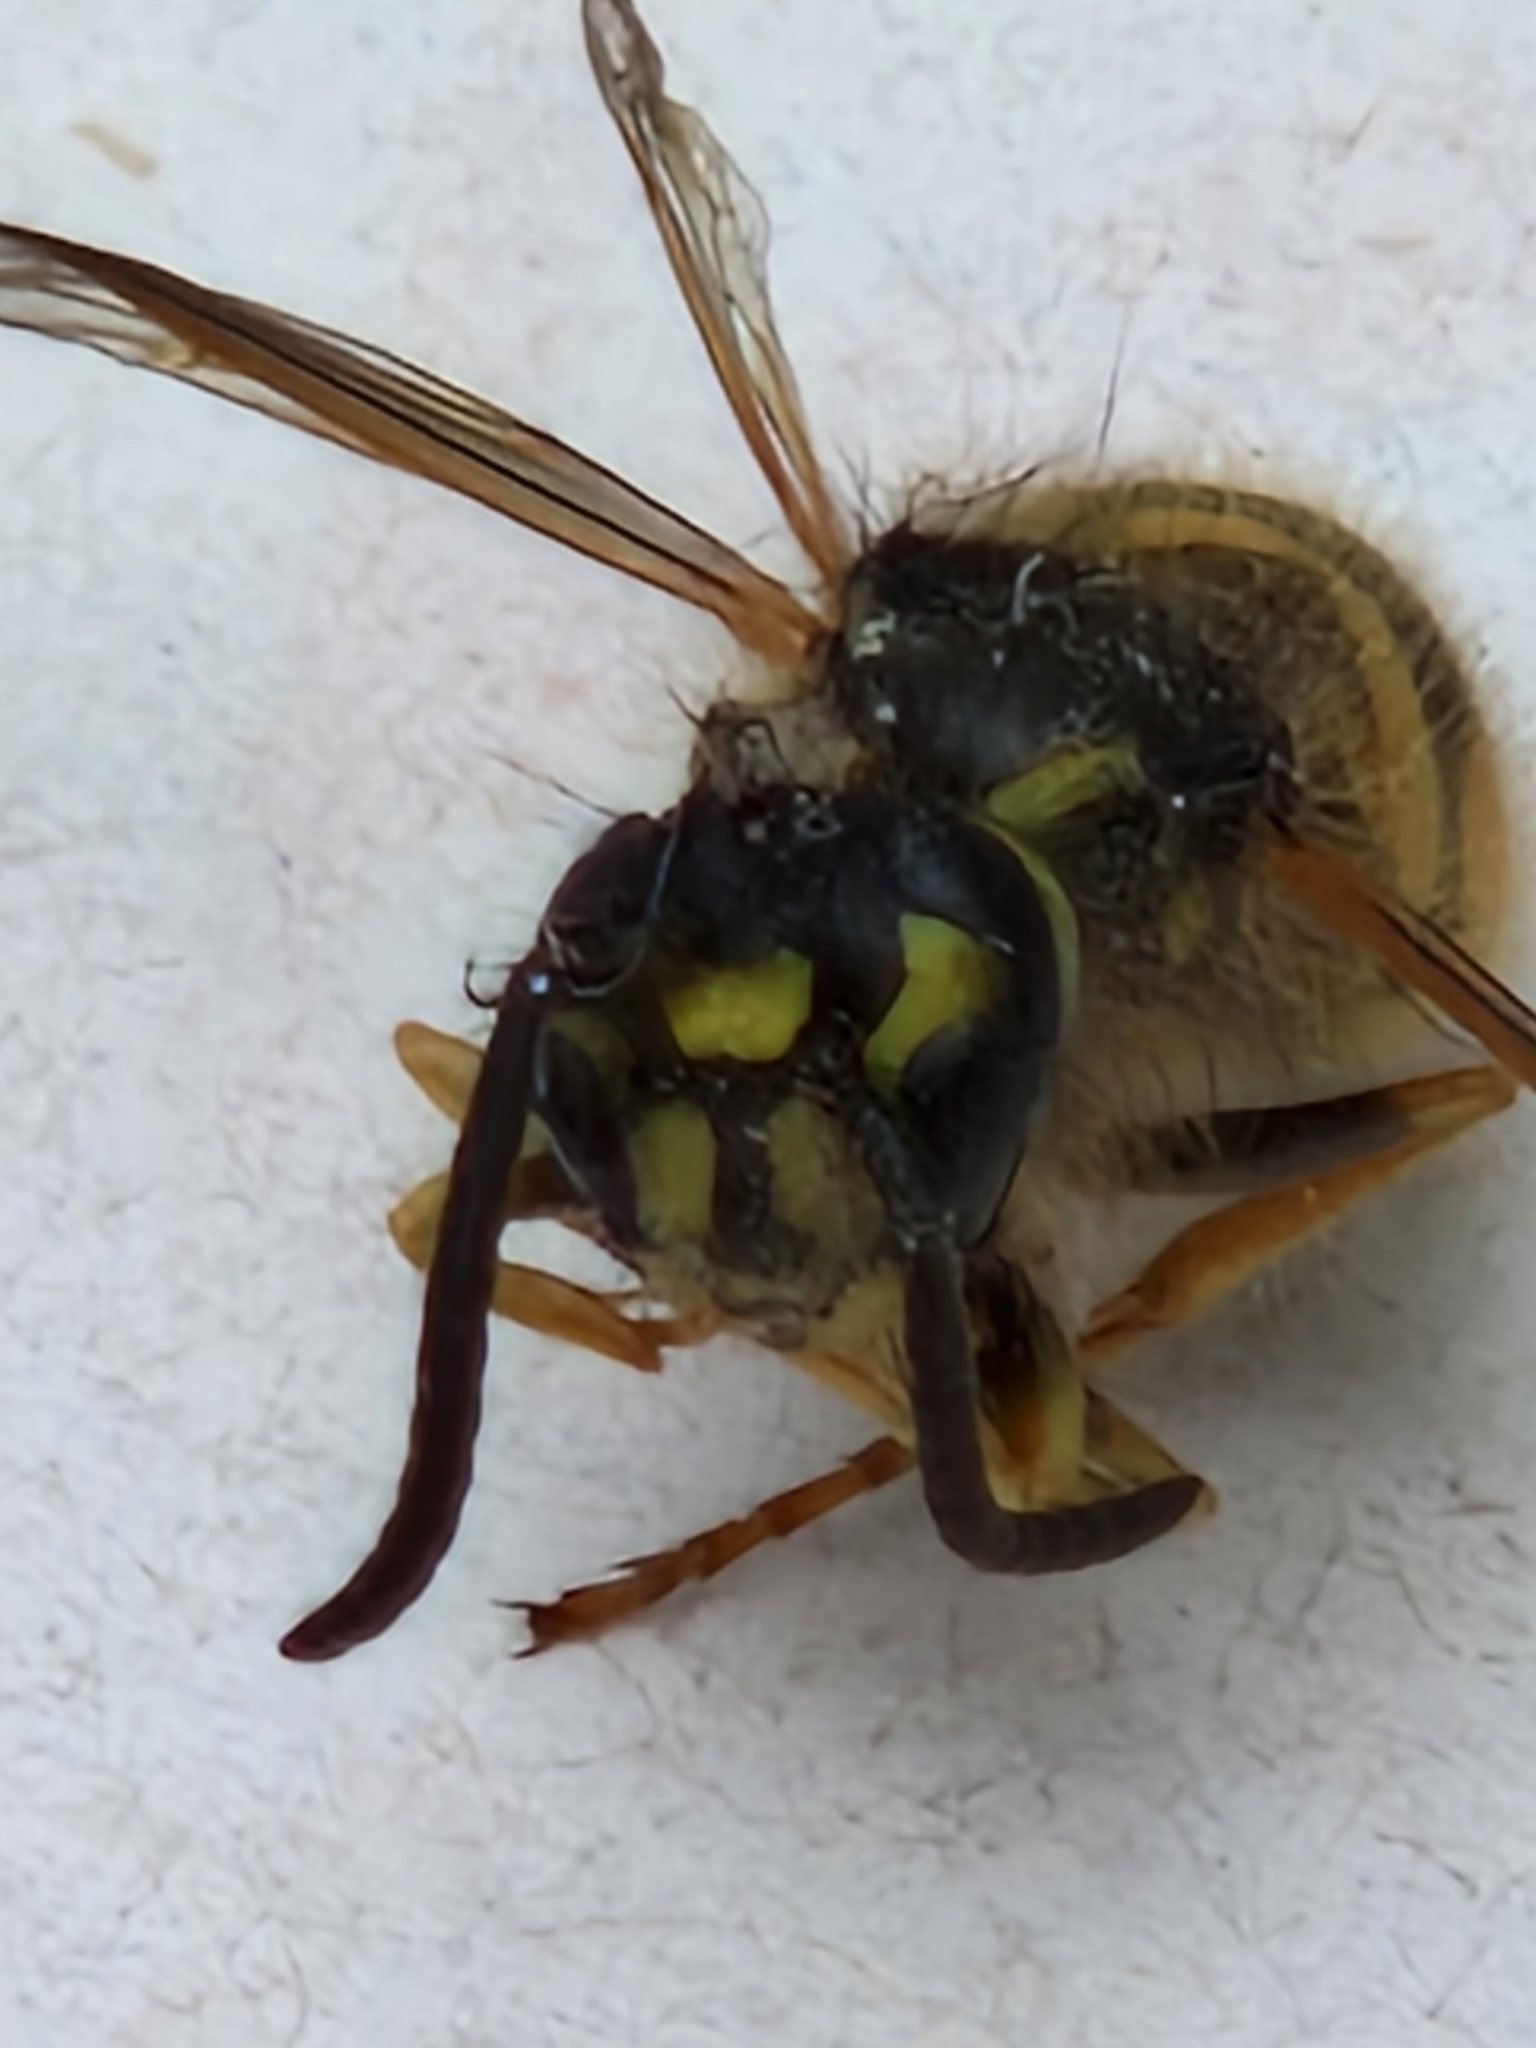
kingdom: Animalia
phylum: Arthropoda
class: Insecta
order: Hymenoptera
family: Vespidae
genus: Vespula
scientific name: Vespula vulgaris
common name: Common wasp
